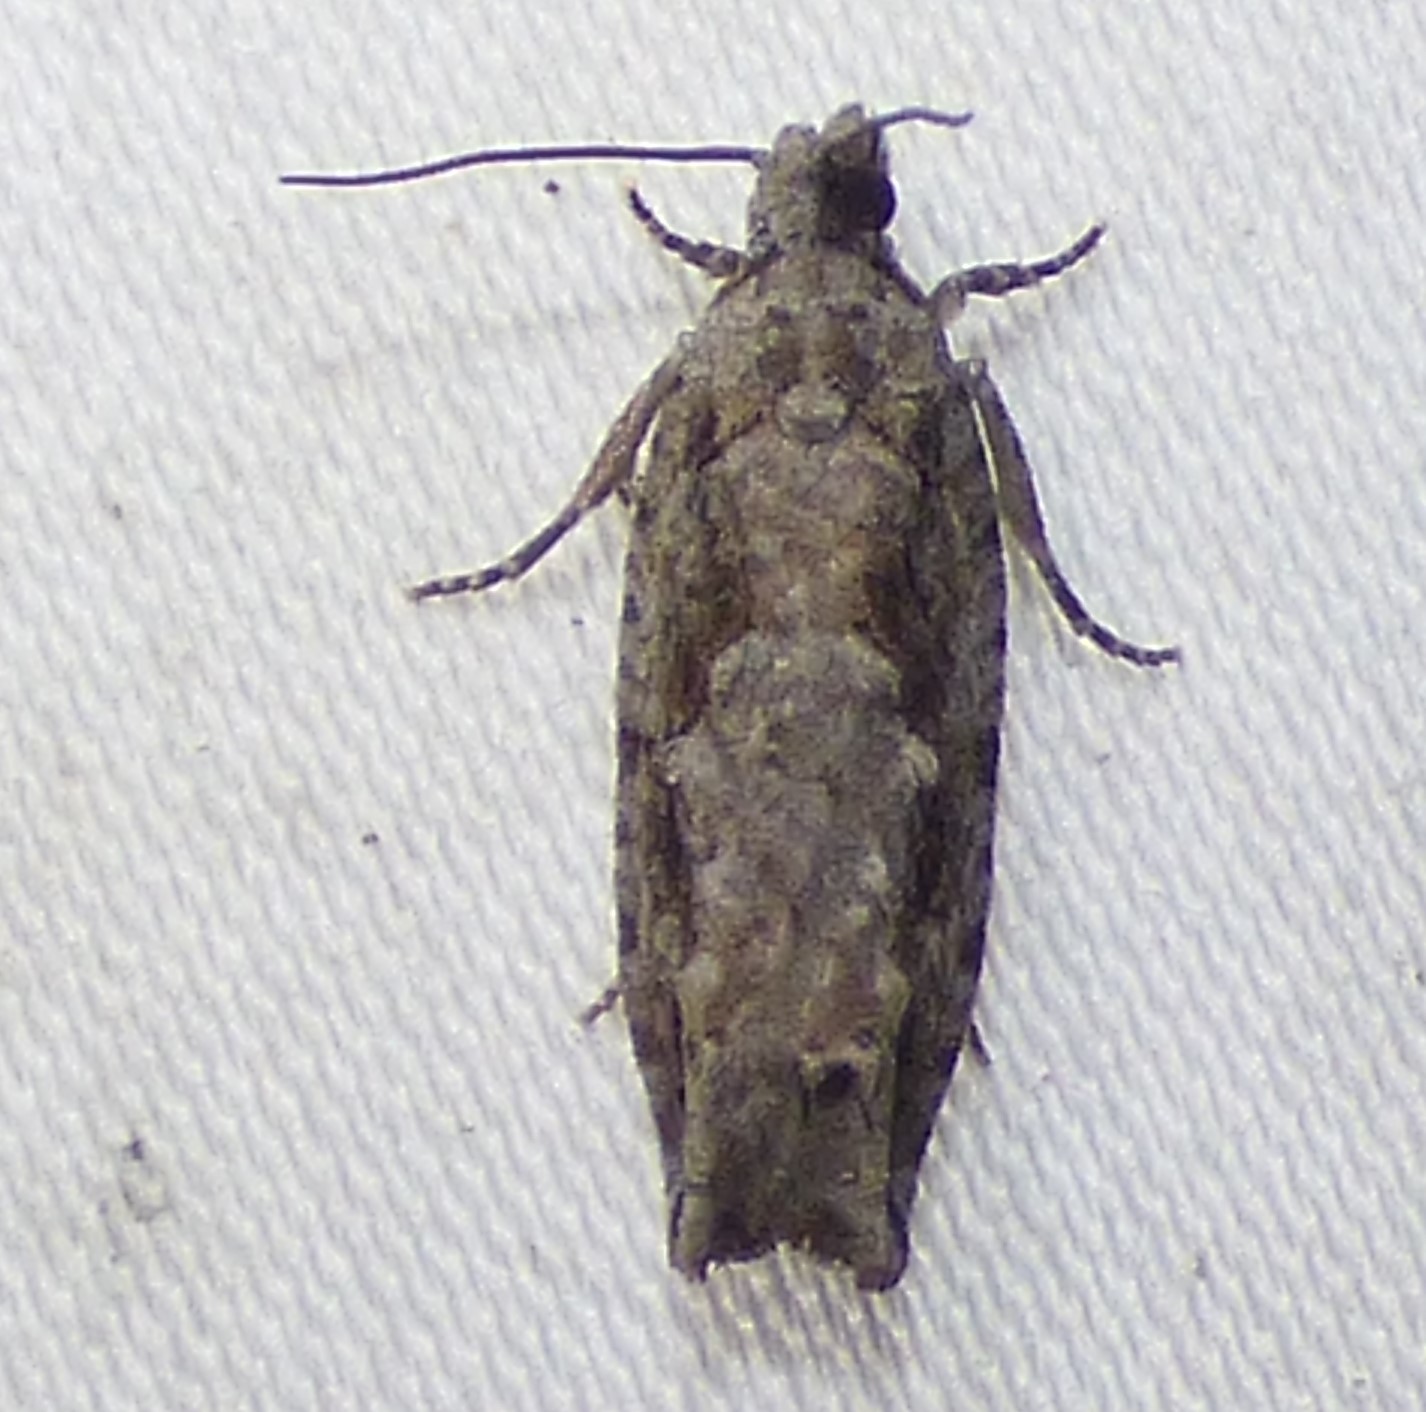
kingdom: Animalia
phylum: Arthropoda
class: Insecta
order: Lepidoptera
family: Tortricidae
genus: Gretchena
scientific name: Gretchena bolliana
